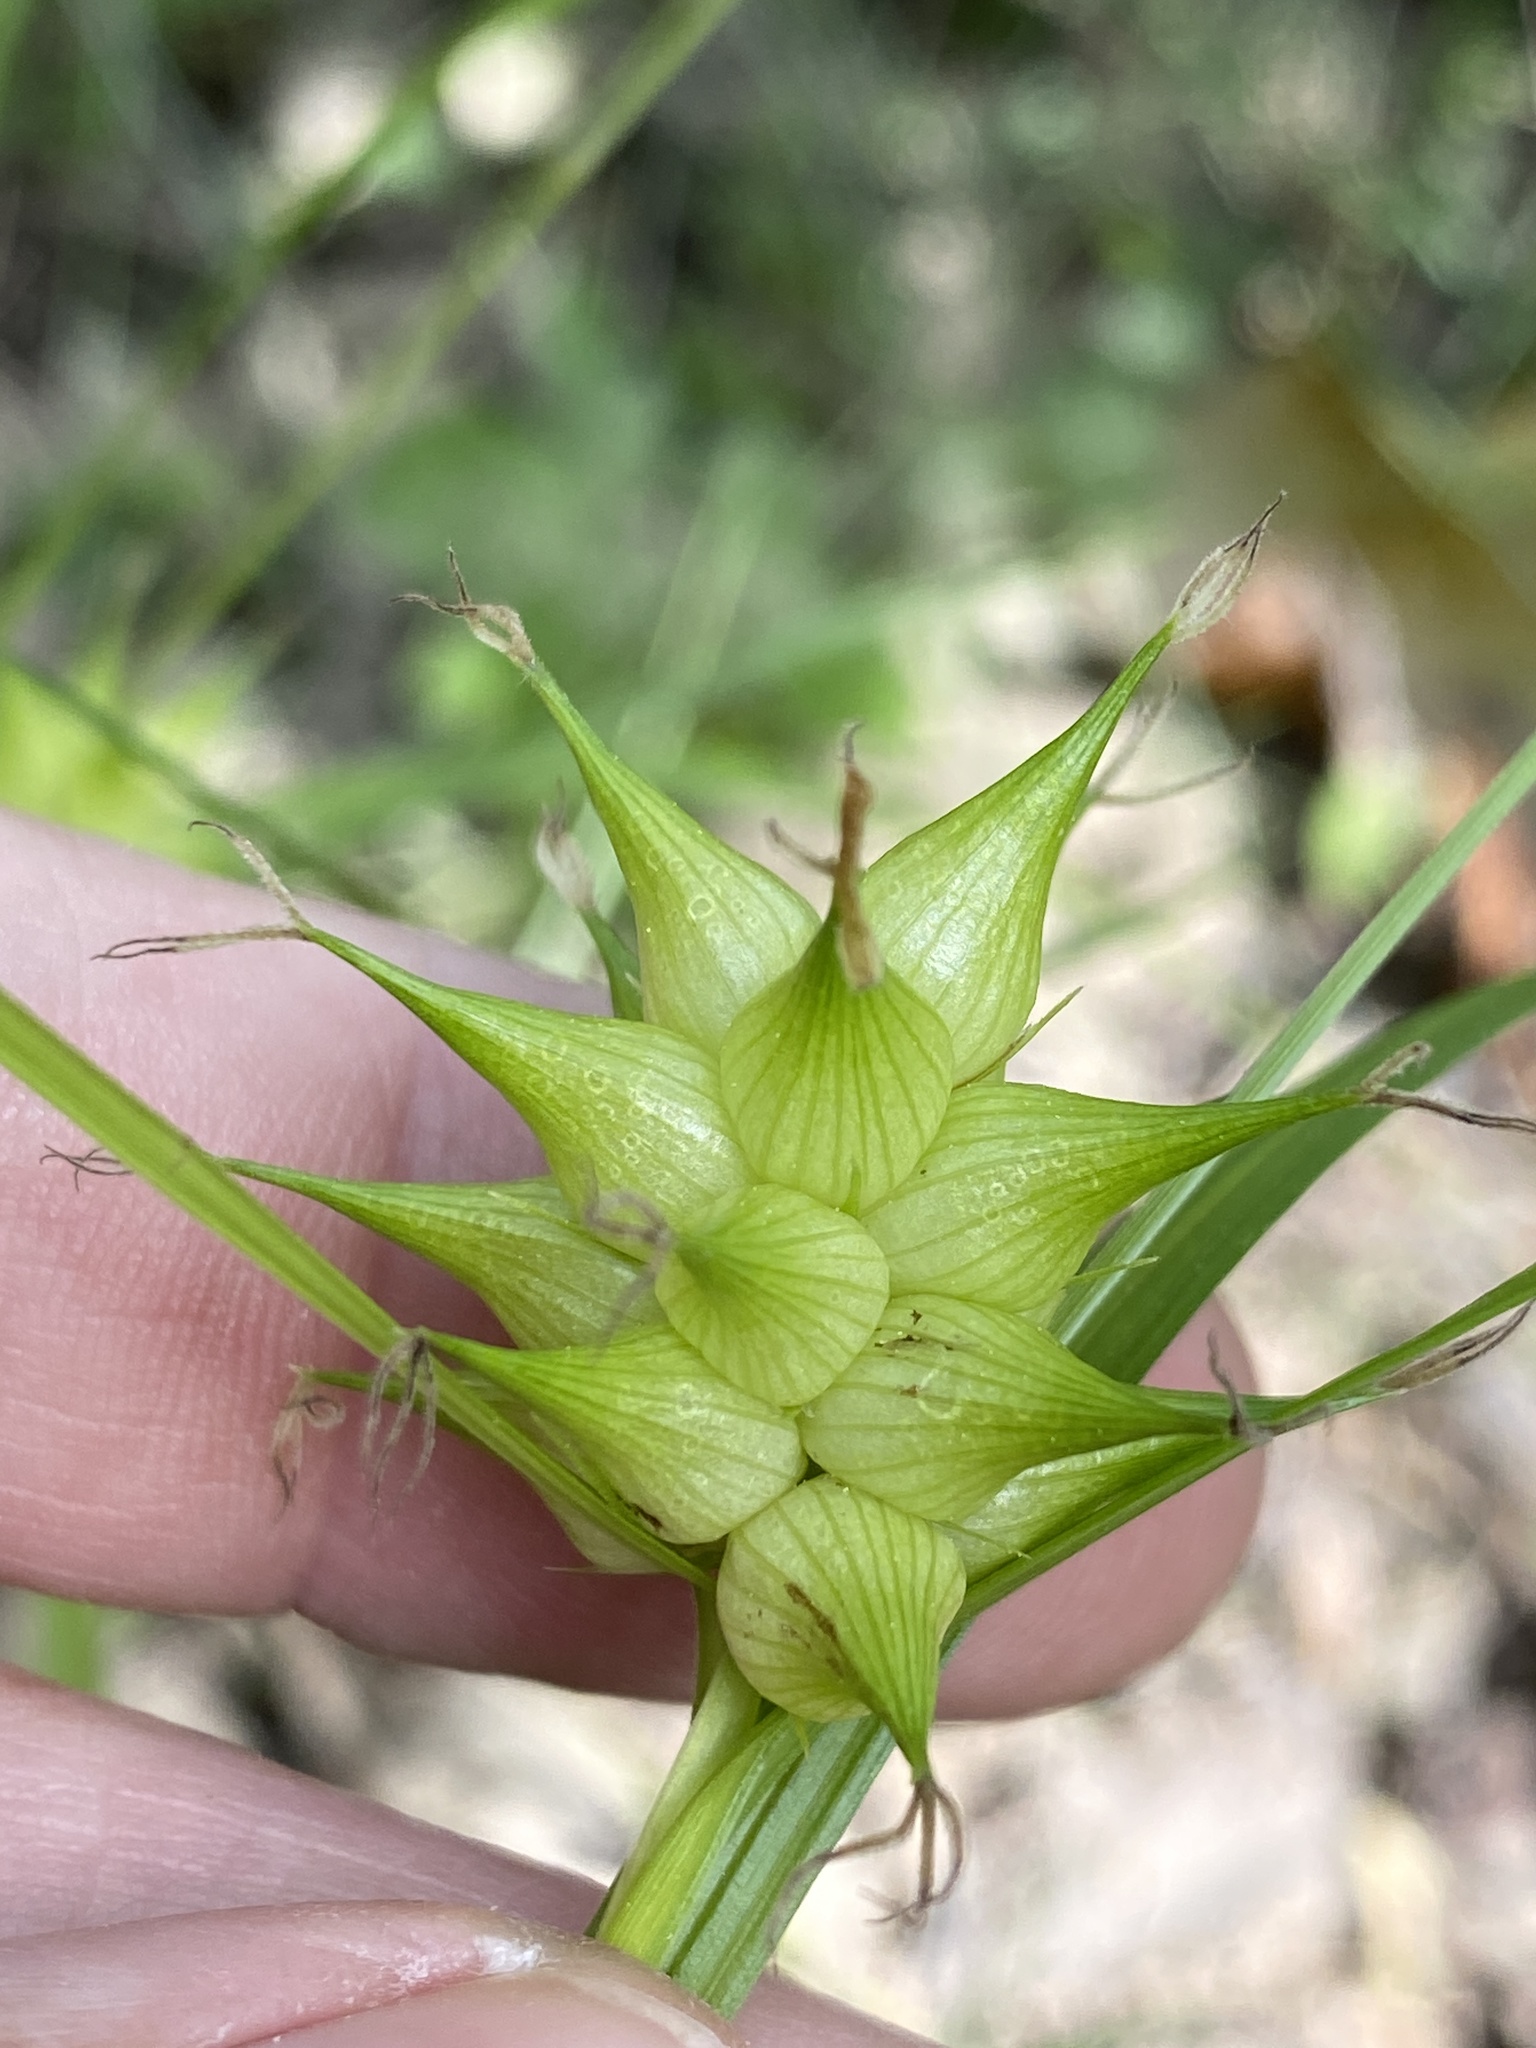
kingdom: Plantae
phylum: Tracheophyta
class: Liliopsida
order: Poales
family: Cyperaceae
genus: Carex
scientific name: Carex intumescens
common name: Greater bladder sedge
